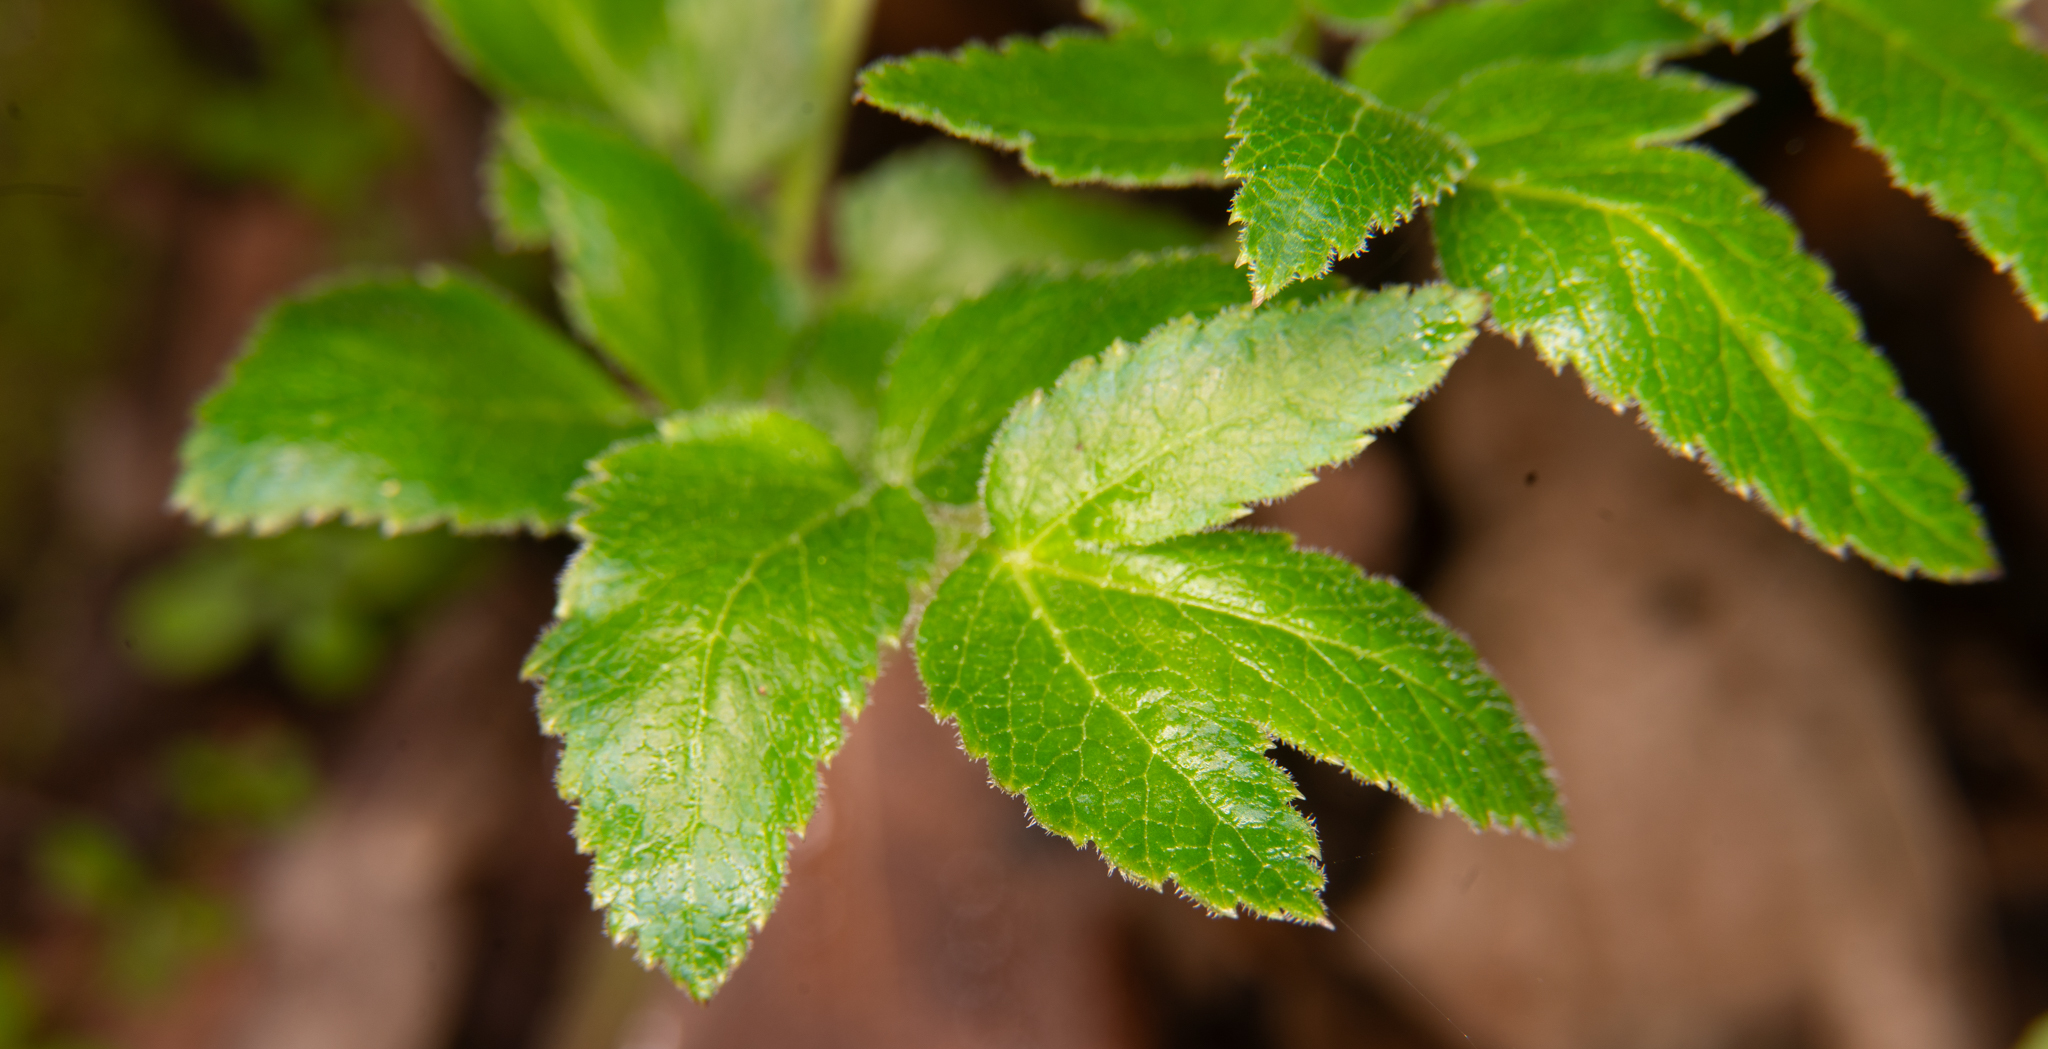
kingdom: Plantae
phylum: Tracheophyta
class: Magnoliopsida
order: Apiales
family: Apiaceae
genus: Angelica
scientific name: Angelica hendersonii
